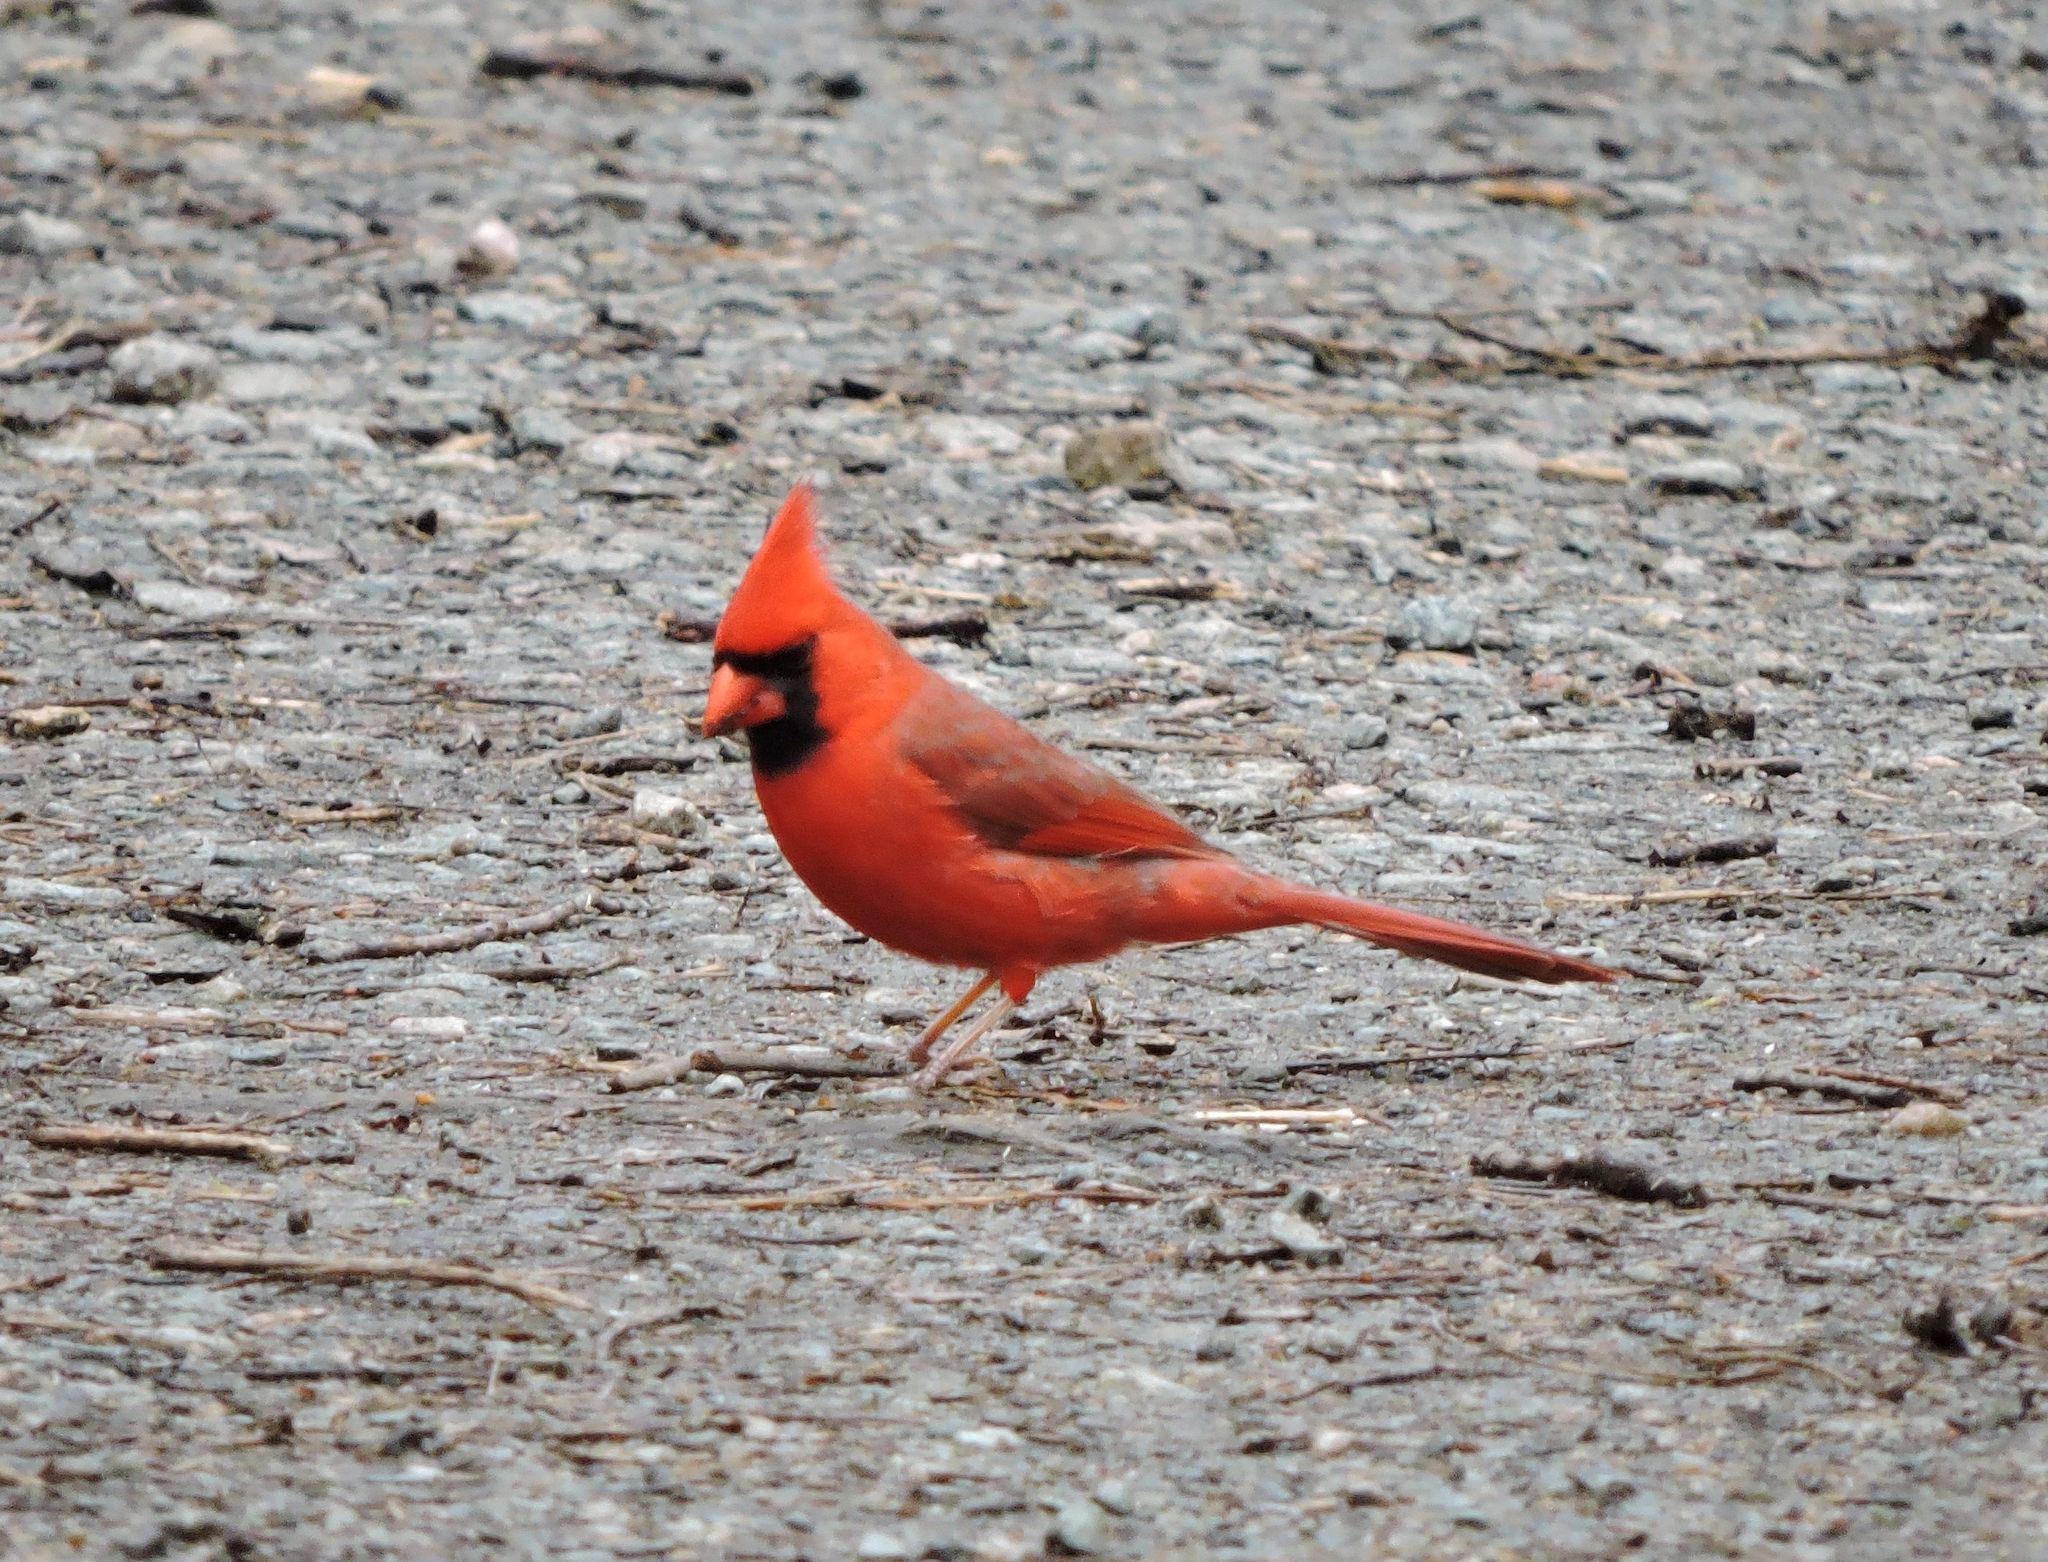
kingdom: Animalia
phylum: Chordata
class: Aves
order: Passeriformes
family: Cardinalidae
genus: Cardinalis
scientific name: Cardinalis cardinalis
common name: Northern cardinal
